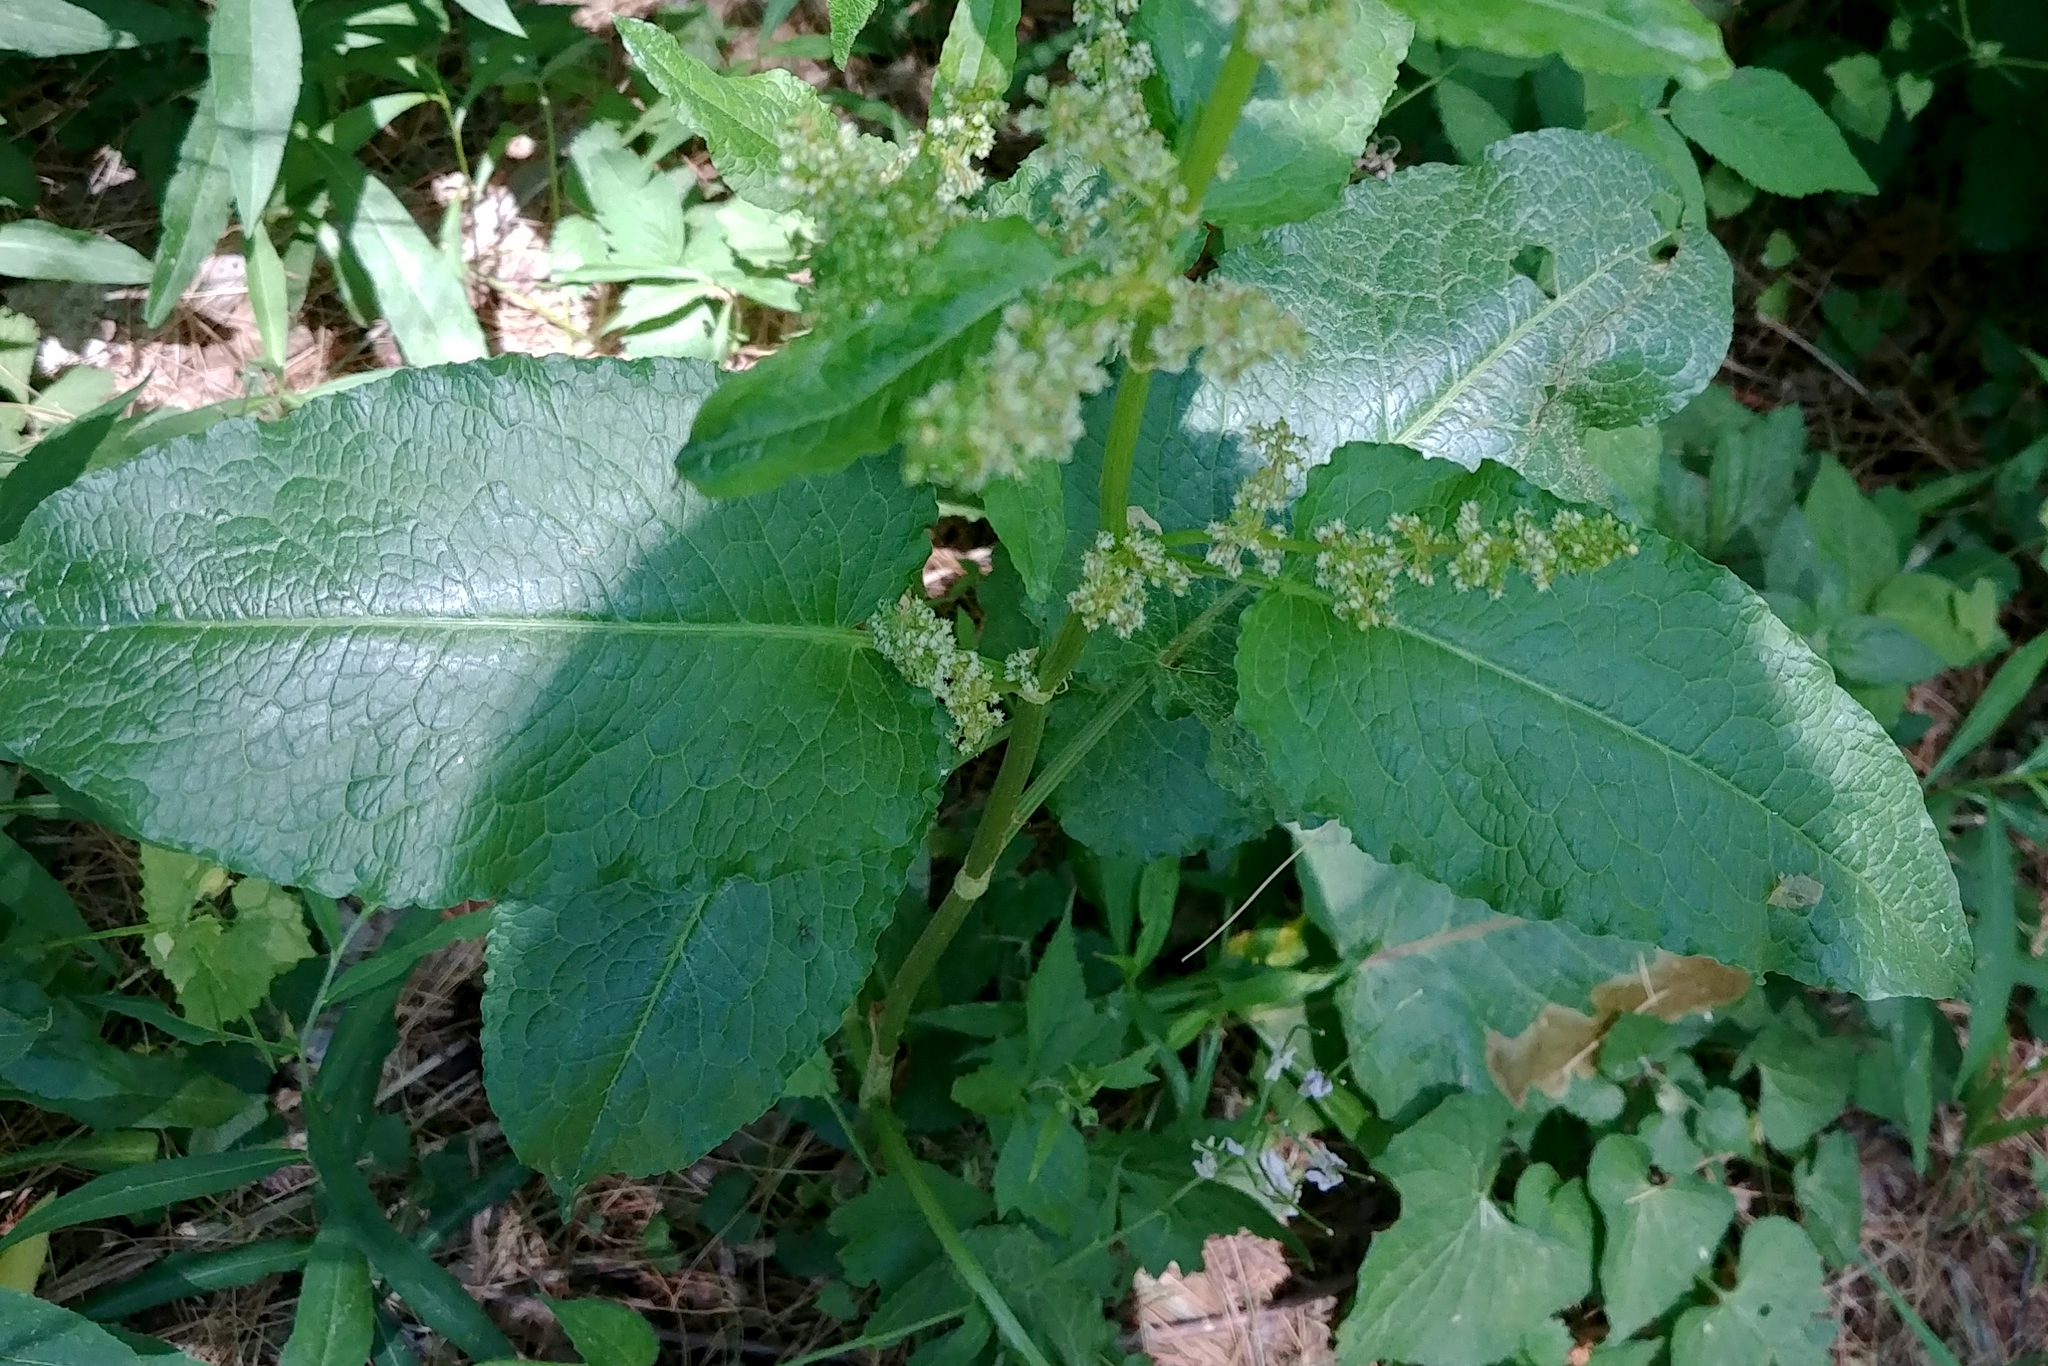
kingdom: Plantae
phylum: Tracheophyta
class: Magnoliopsida
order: Caryophyllales
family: Polygonaceae
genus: Rumex
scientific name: Rumex obtusifolius
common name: Bitter dock
